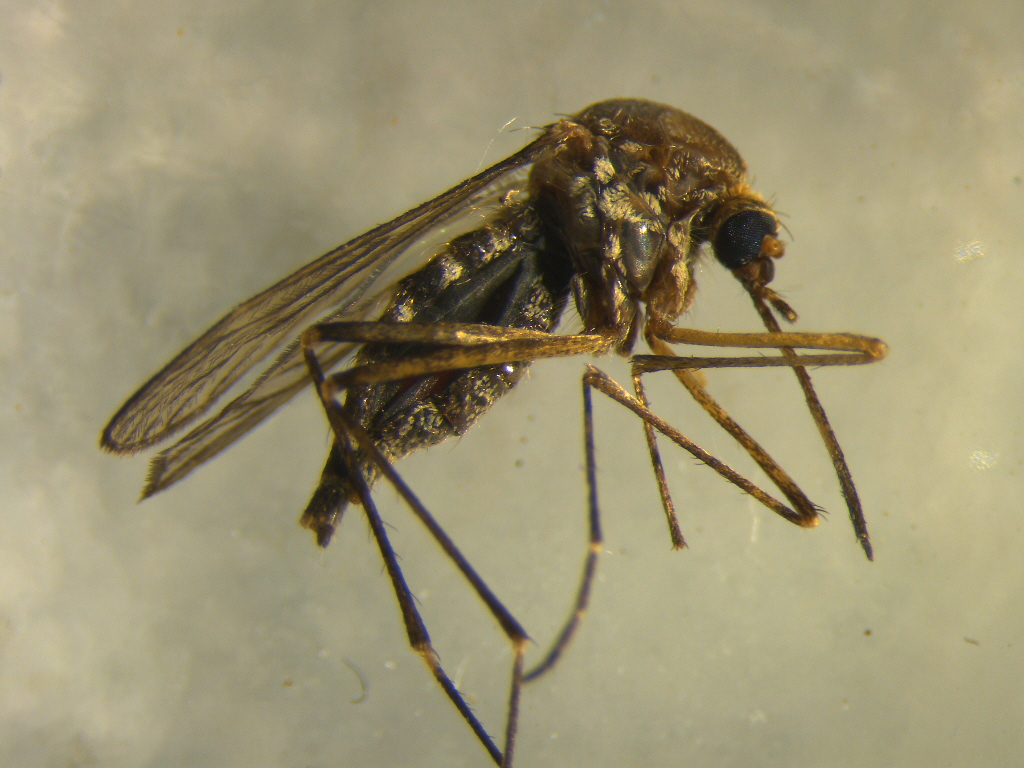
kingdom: Animalia
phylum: Arthropoda
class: Insecta
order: Diptera
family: Culicidae
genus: Aedes
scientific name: Aedes subalbirostris
